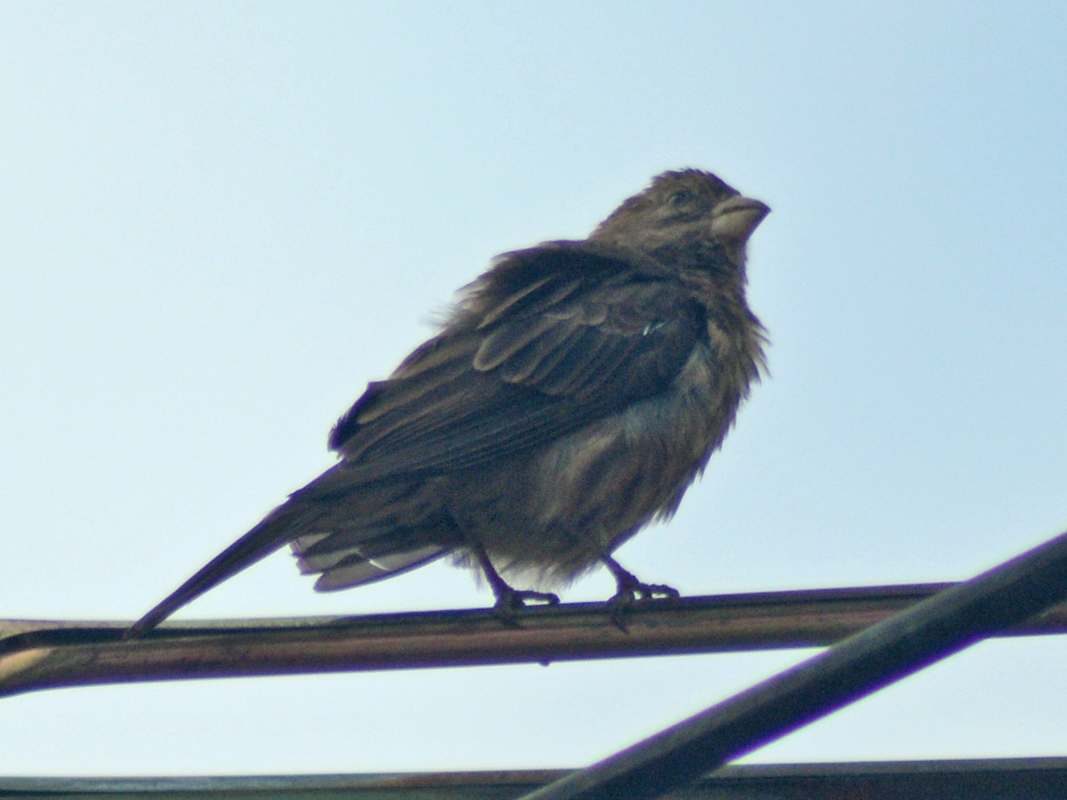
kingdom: Animalia
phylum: Chordata
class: Aves
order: Passeriformes
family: Fringillidae
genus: Haemorhous
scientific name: Haemorhous mexicanus
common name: House finch
